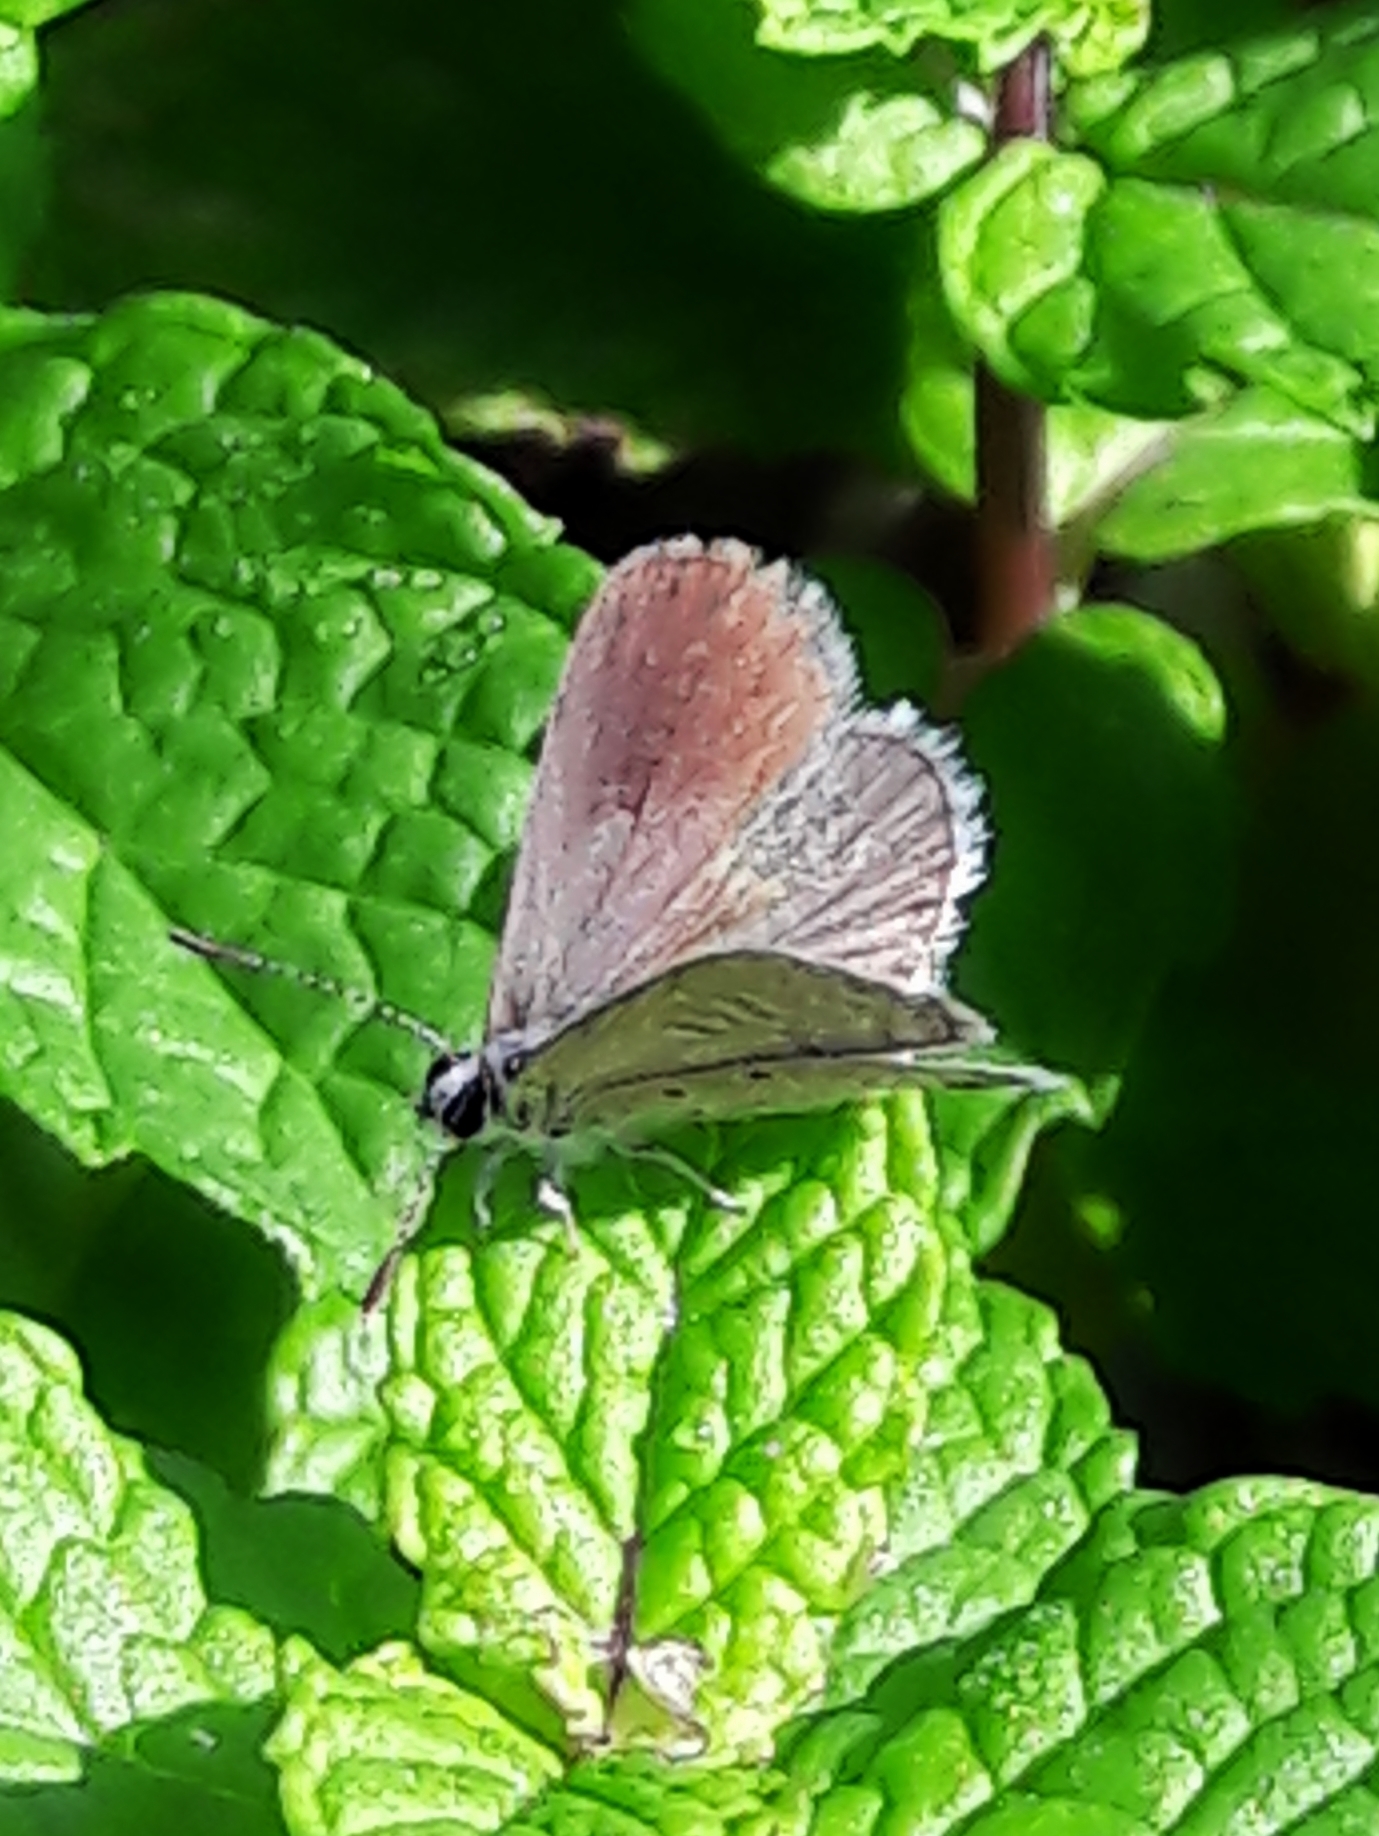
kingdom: Animalia
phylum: Arthropoda
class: Insecta
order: Lepidoptera
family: Lycaenidae
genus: Hemiargus
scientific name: Hemiargus hanno
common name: Common blue
